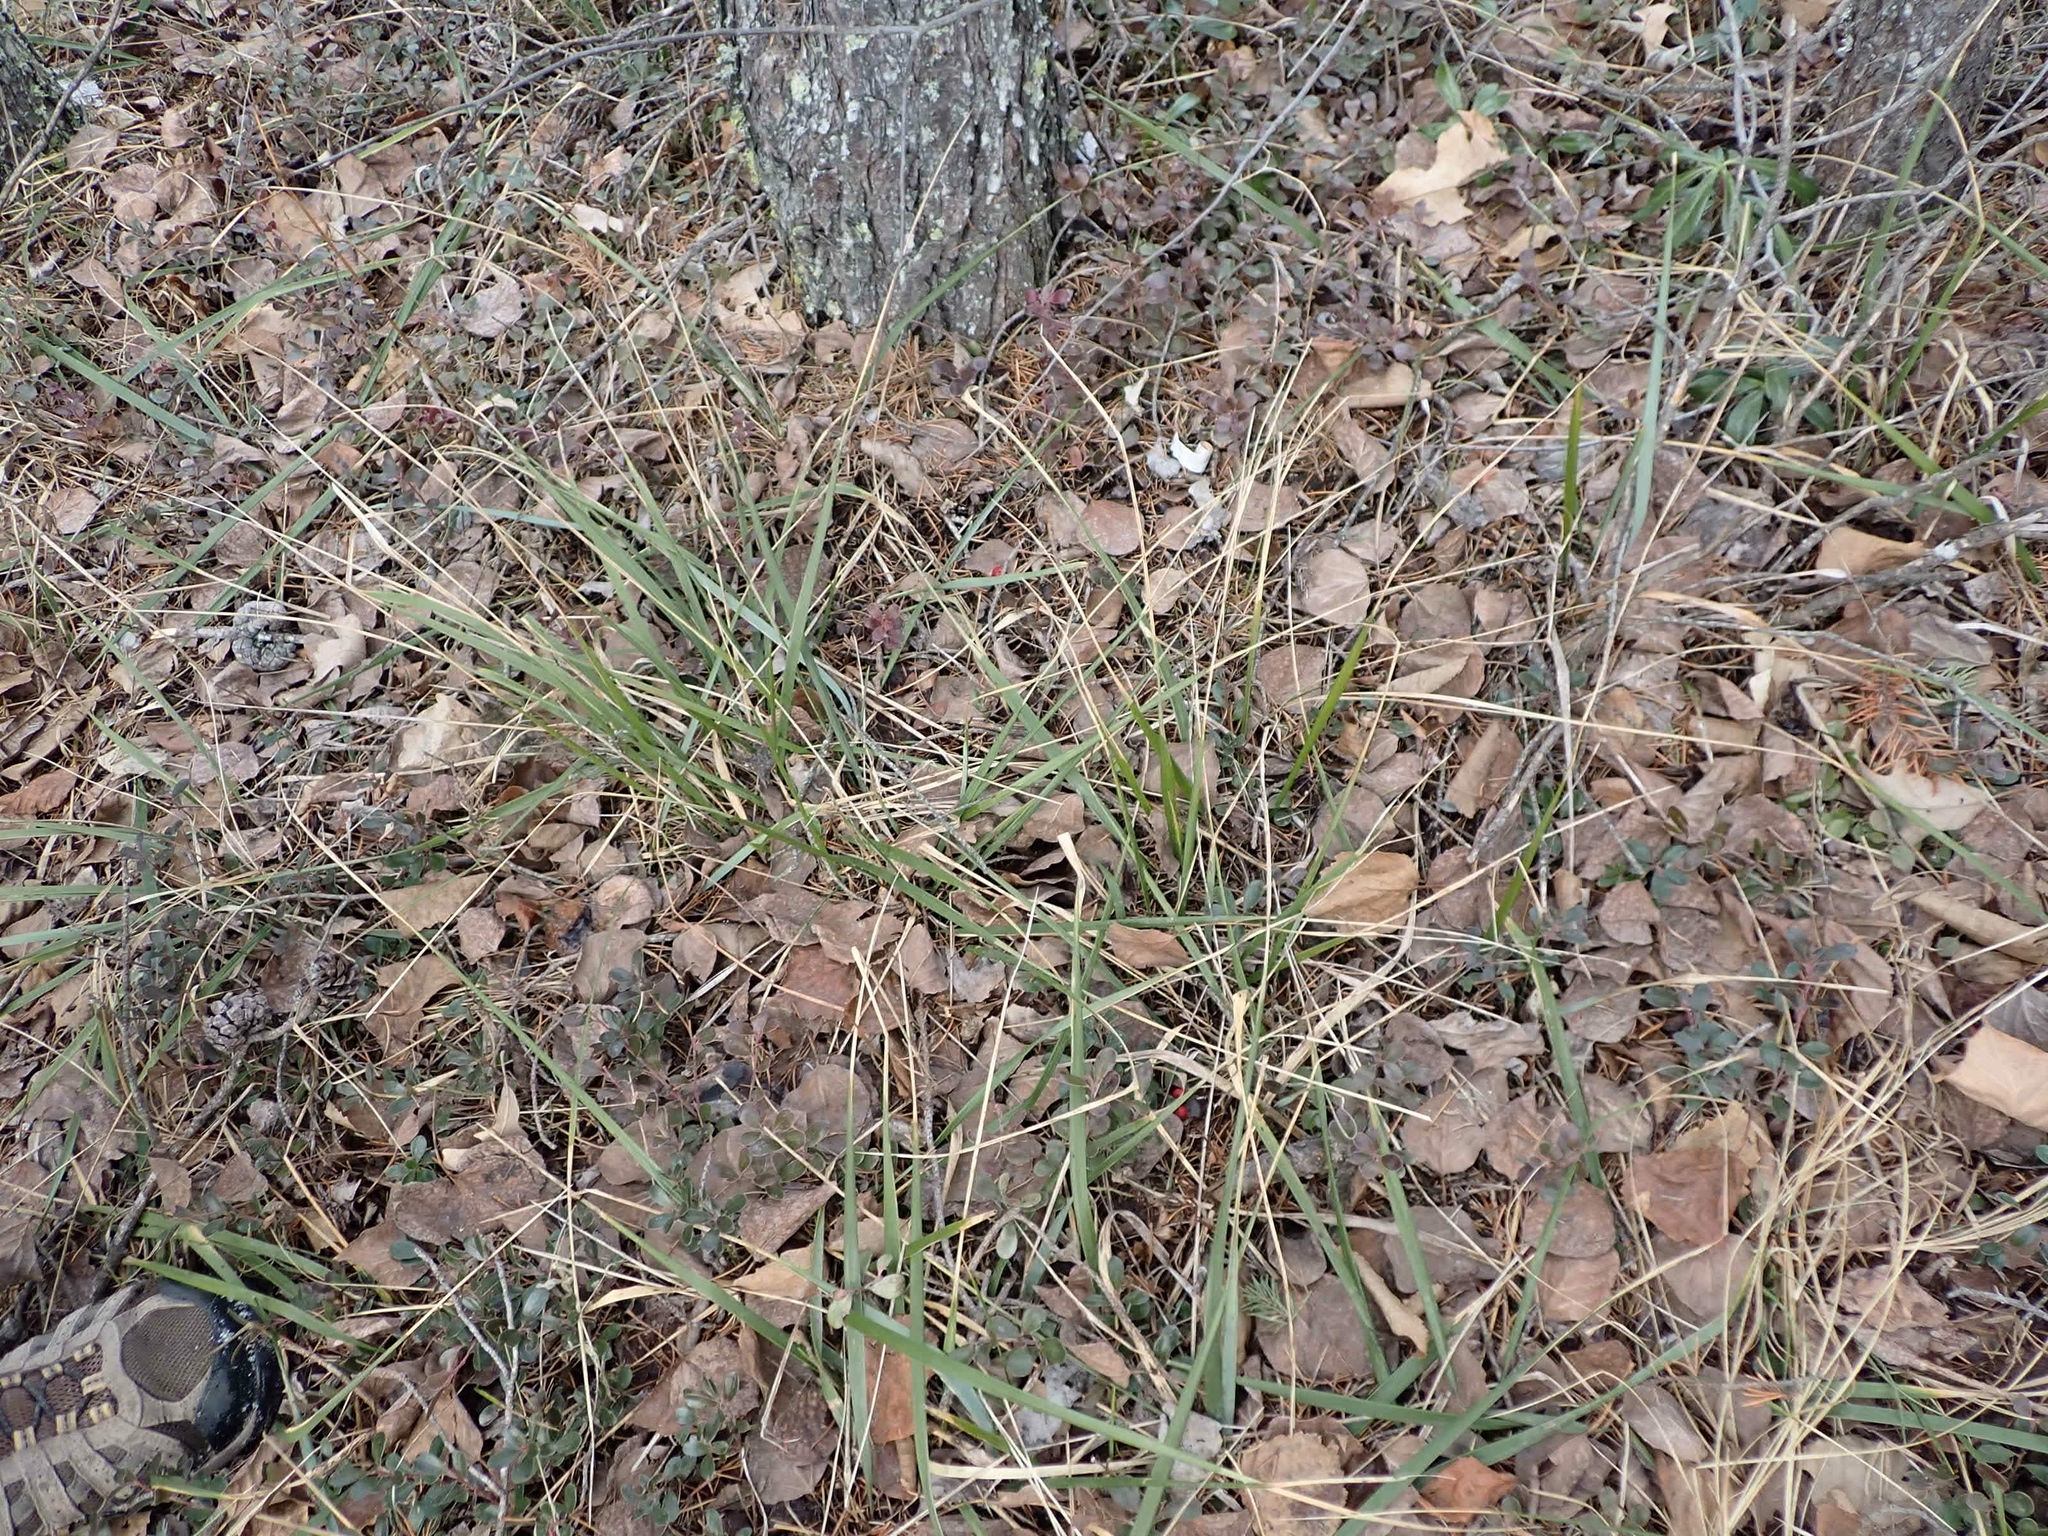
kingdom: Plantae
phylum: Tracheophyta
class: Liliopsida
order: Poales
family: Poaceae
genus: Oryzopsis
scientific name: Oryzopsis asperifolia
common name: Rough-leaved mountain rice
